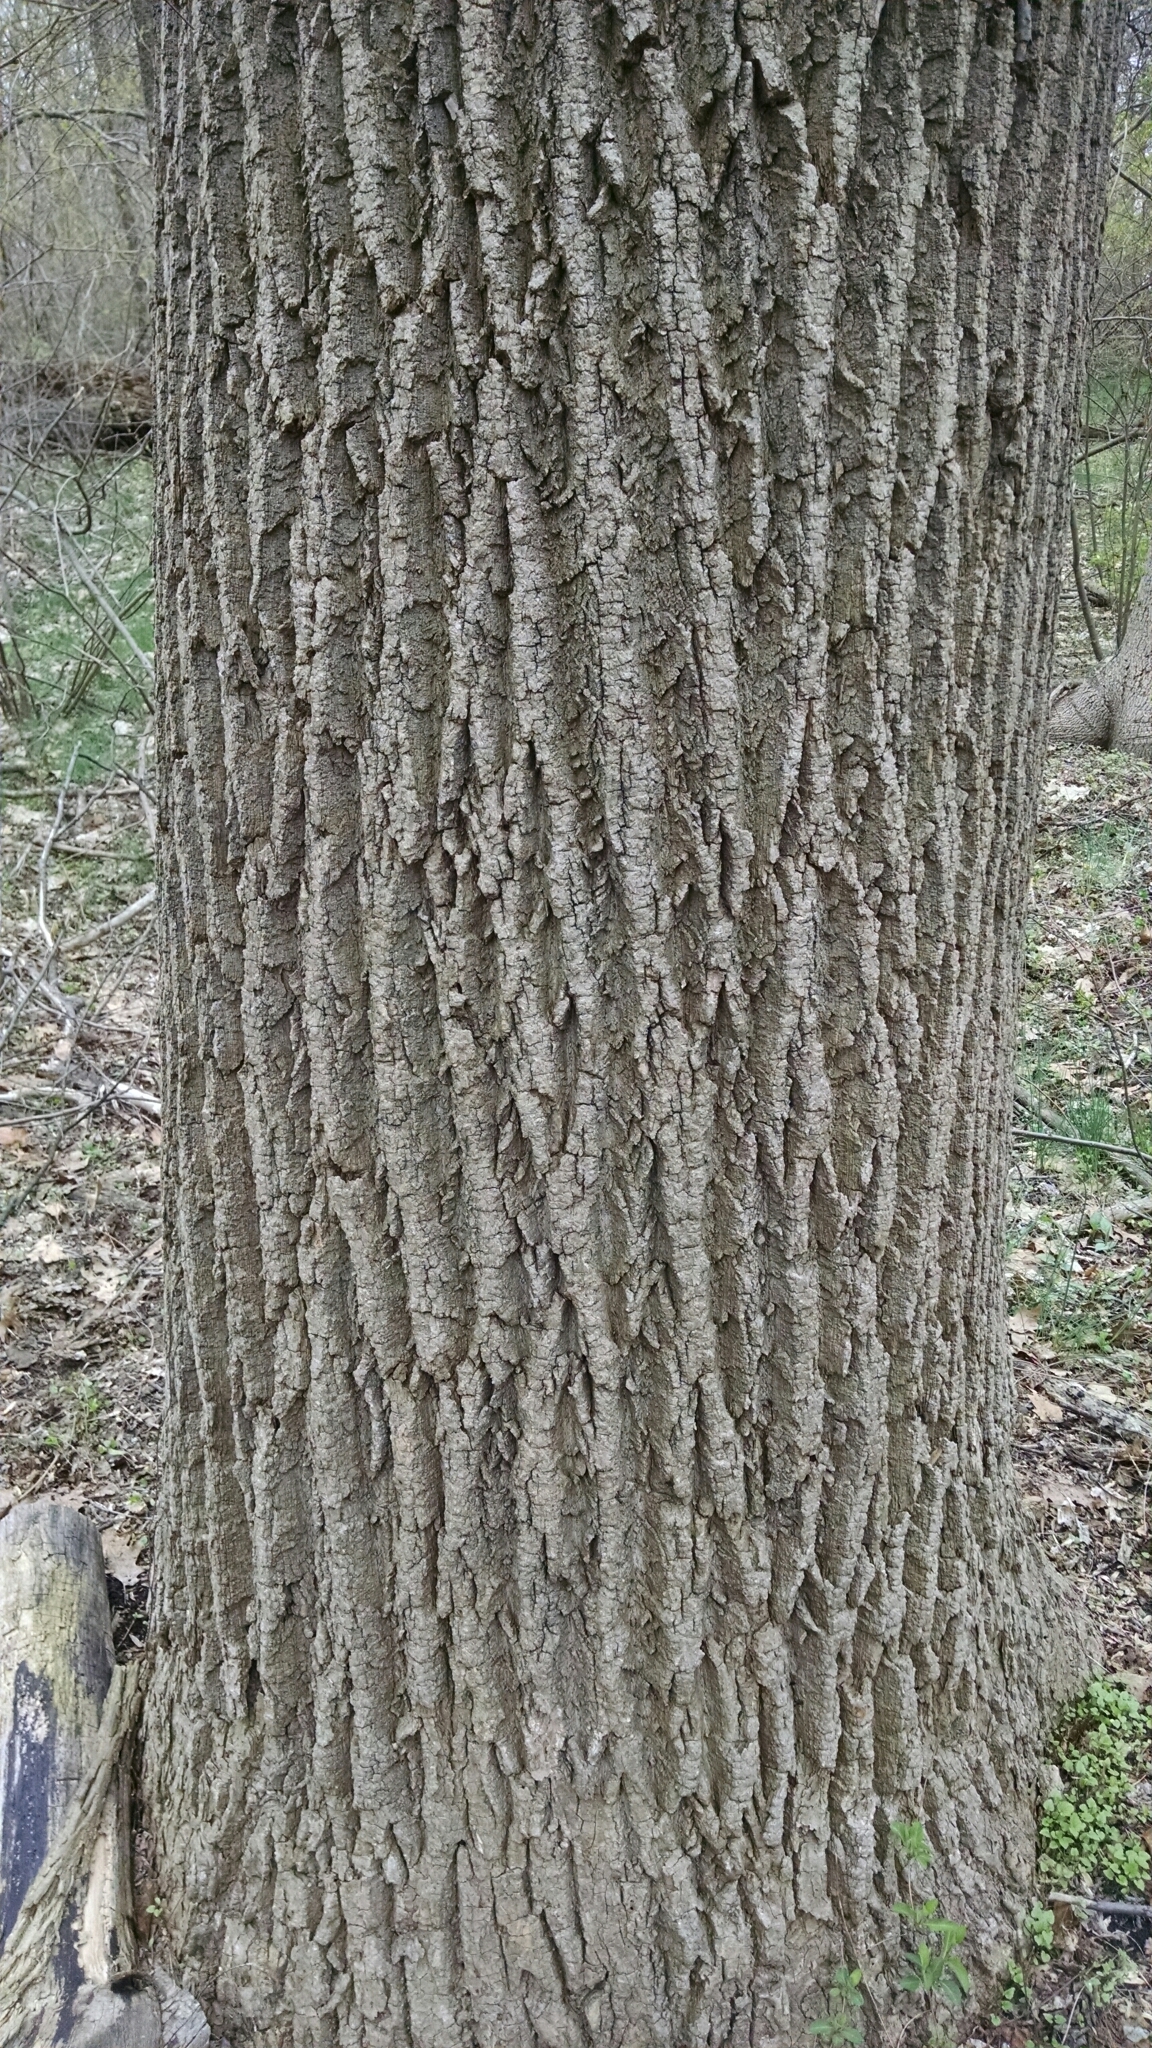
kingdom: Plantae
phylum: Tracheophyta
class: Magnoliopsida
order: Magnoliales
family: Magnoliaceae
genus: Liriodendron
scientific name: Liriodendron tulipifera
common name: Tulip tree
